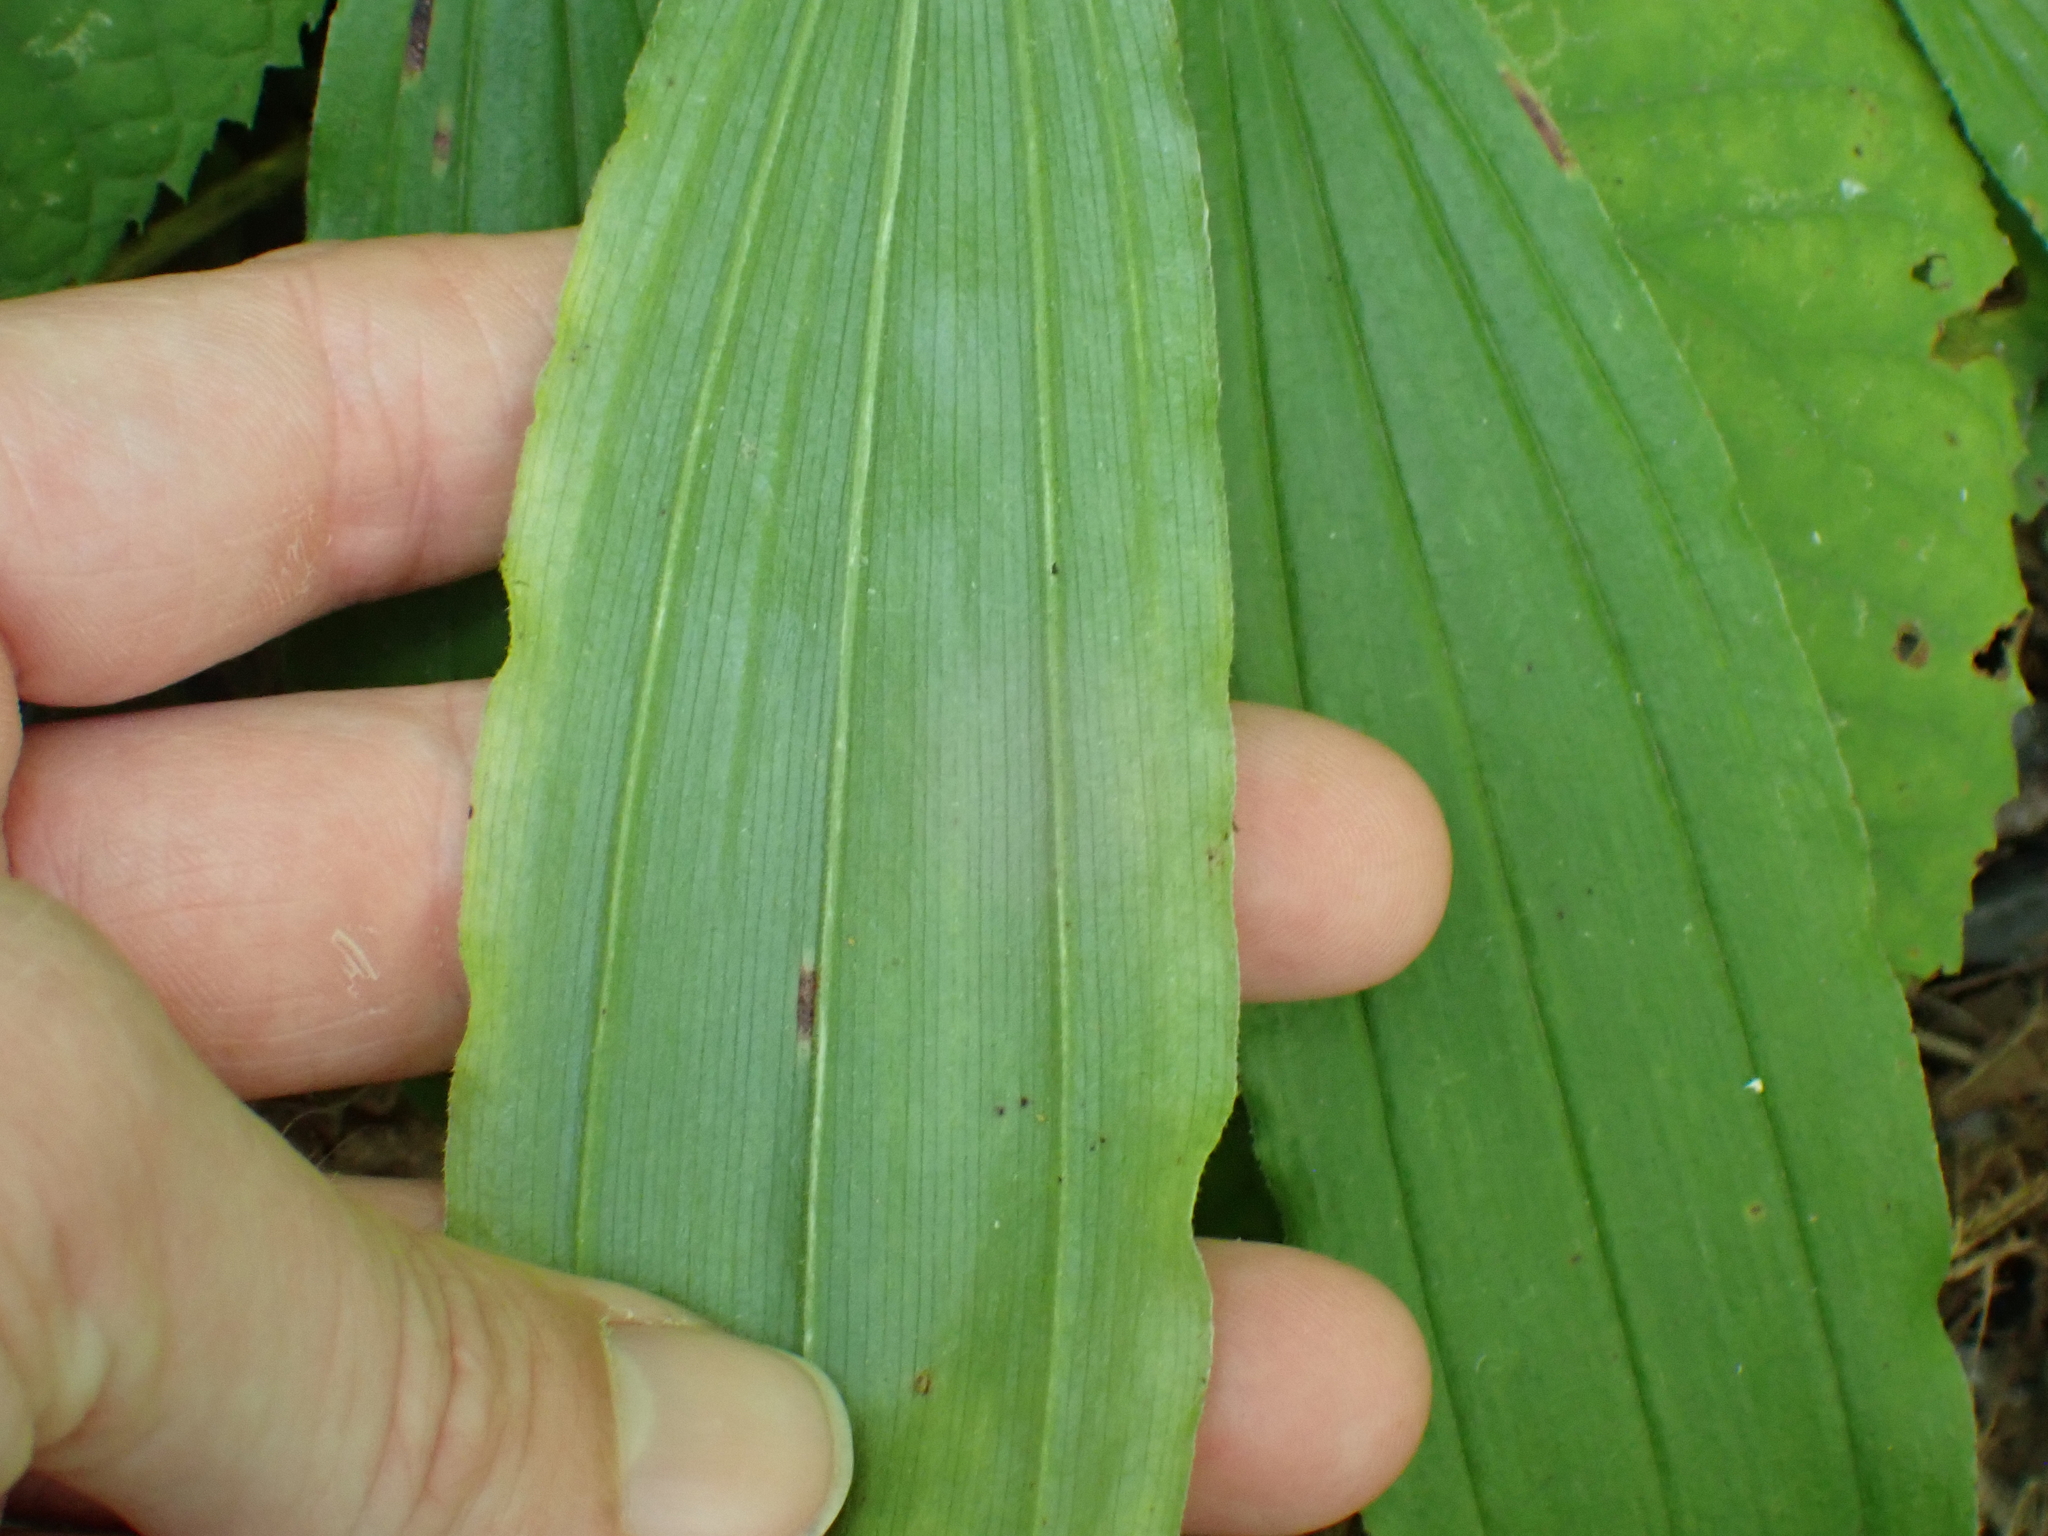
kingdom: Plantae
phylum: Tracheophyta
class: Liliopsida
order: Asparagales
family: Asparagaceae
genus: Maianthemum
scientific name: Maianthemum racemosum
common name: False spikenard
